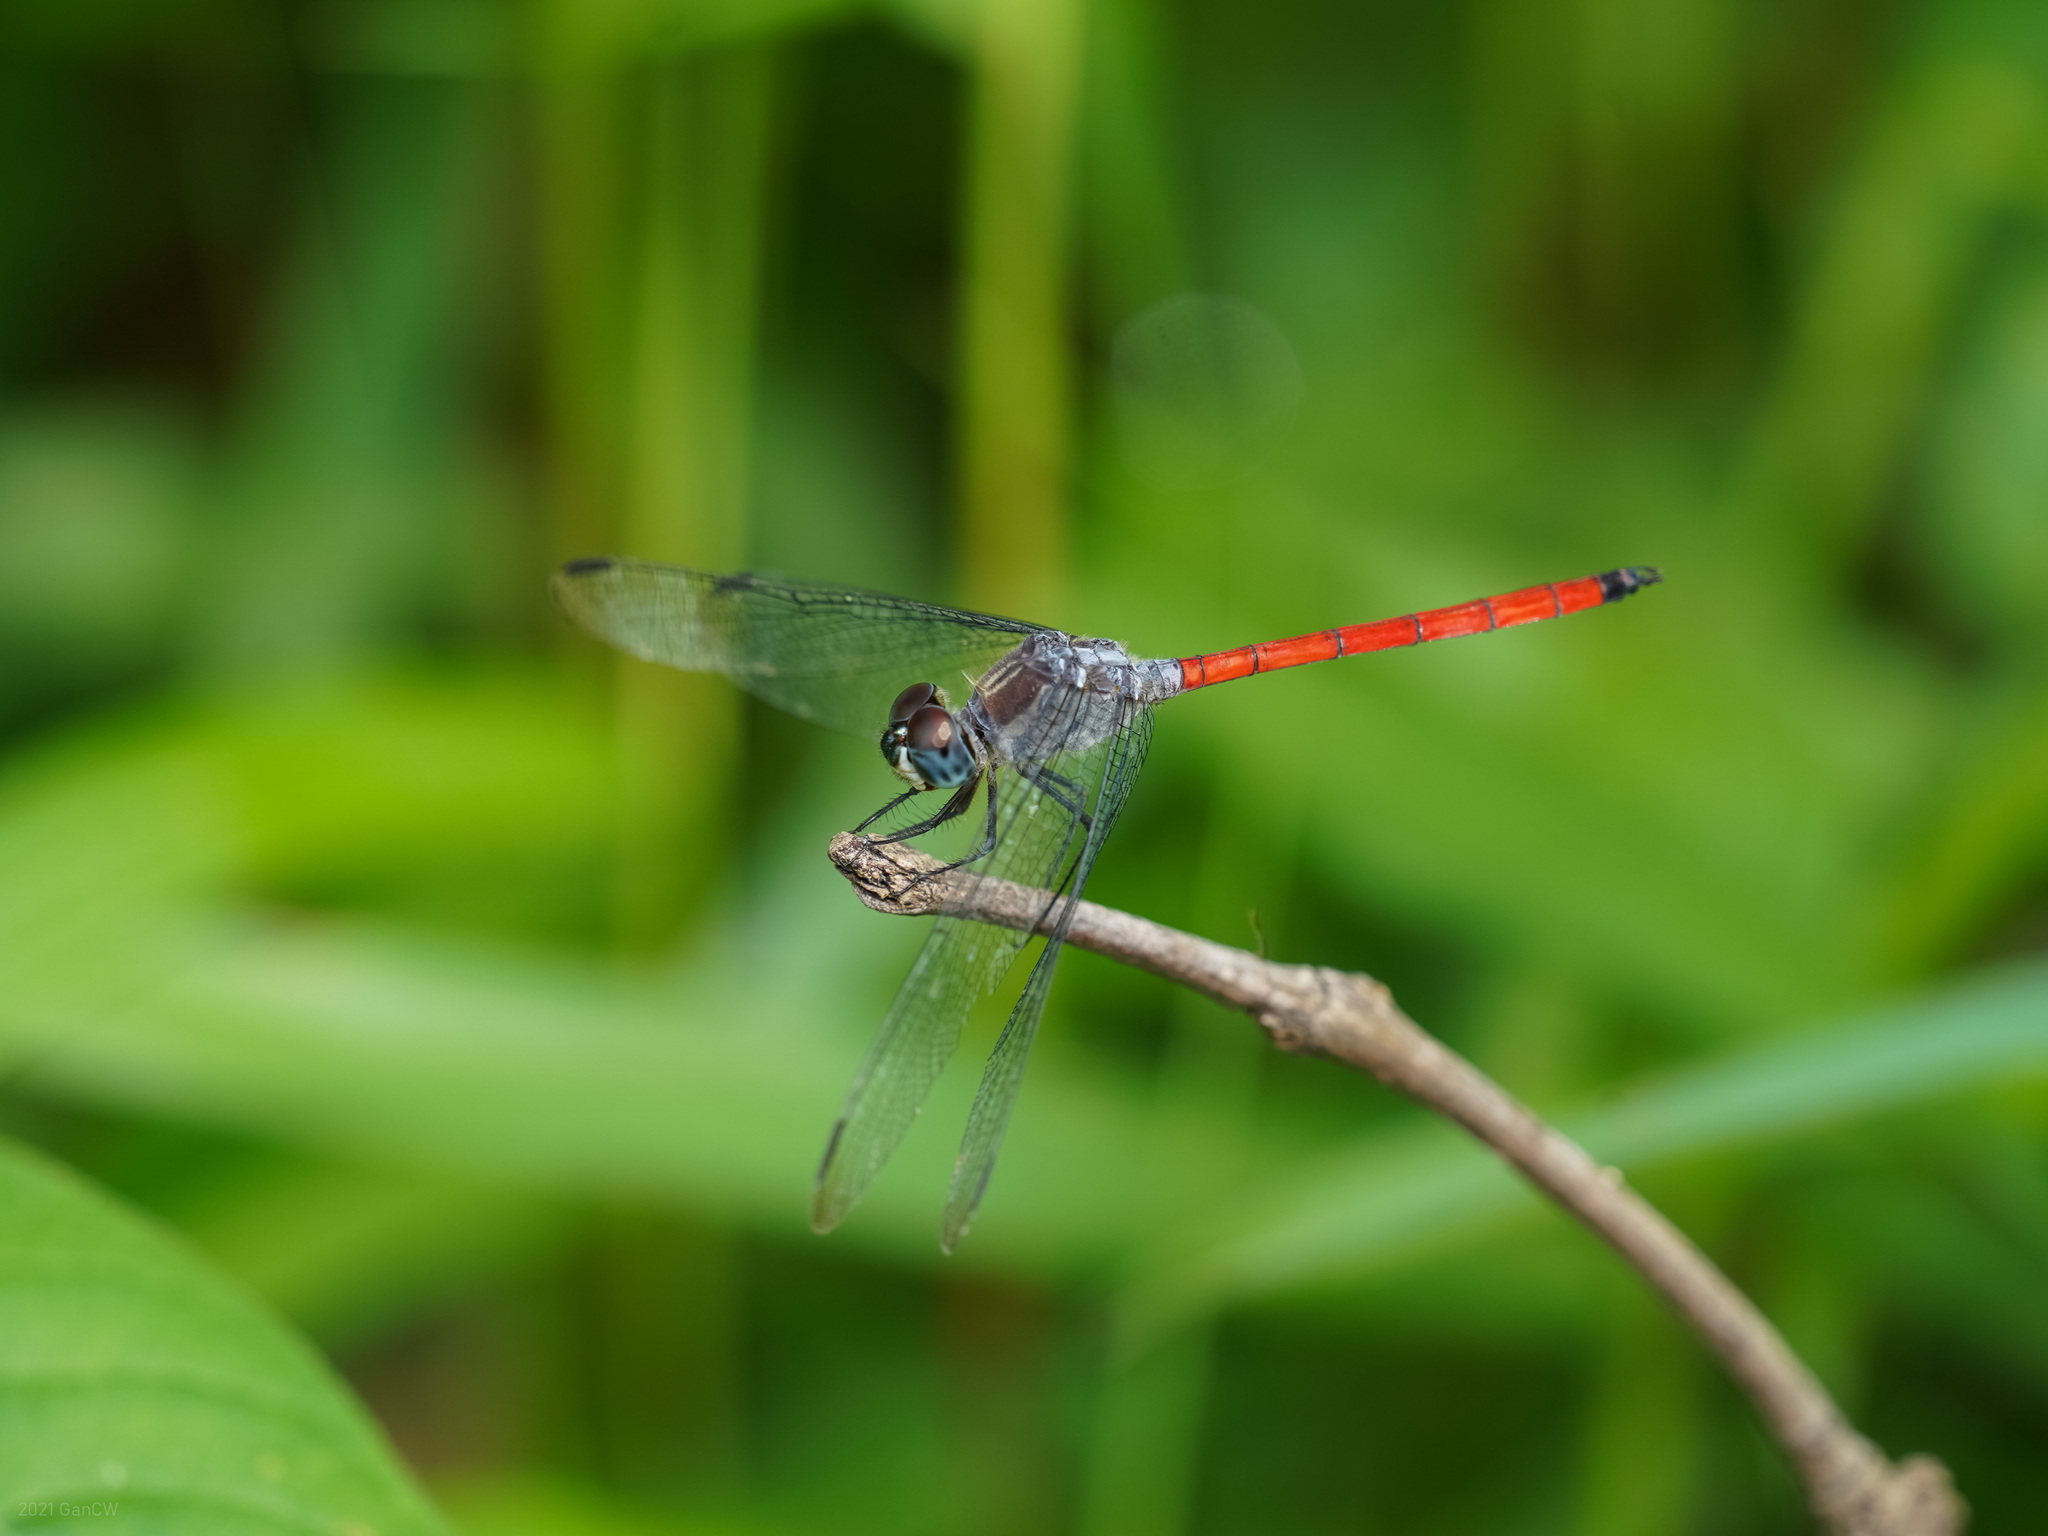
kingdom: Animalia
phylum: Arthropoda
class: Insecta
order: Odonata
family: Libellulidae
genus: Lathrecista
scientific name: Lathrecista asiatica
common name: Scarlet grenadier
